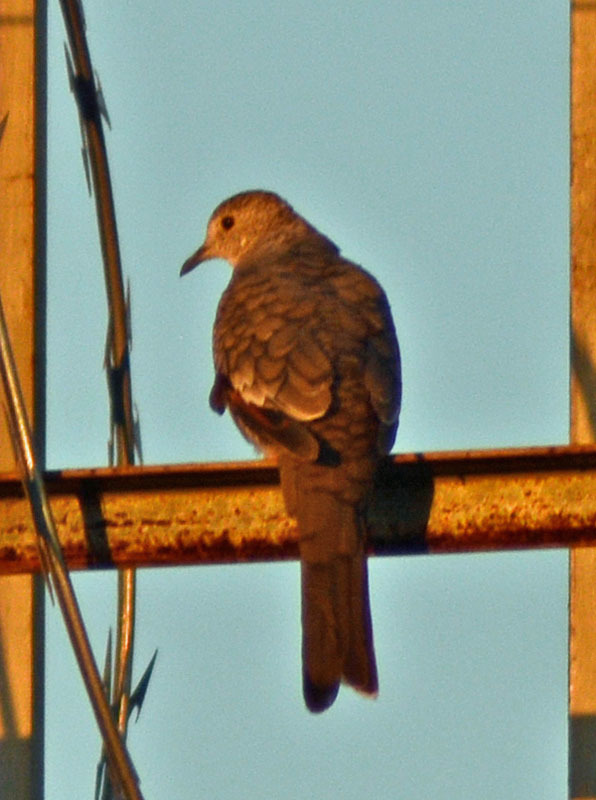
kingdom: Animalia
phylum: Chordata
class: Aves
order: Columbiformes
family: Columbidae
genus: Columbina
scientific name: Columbina inca
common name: Inca dove
